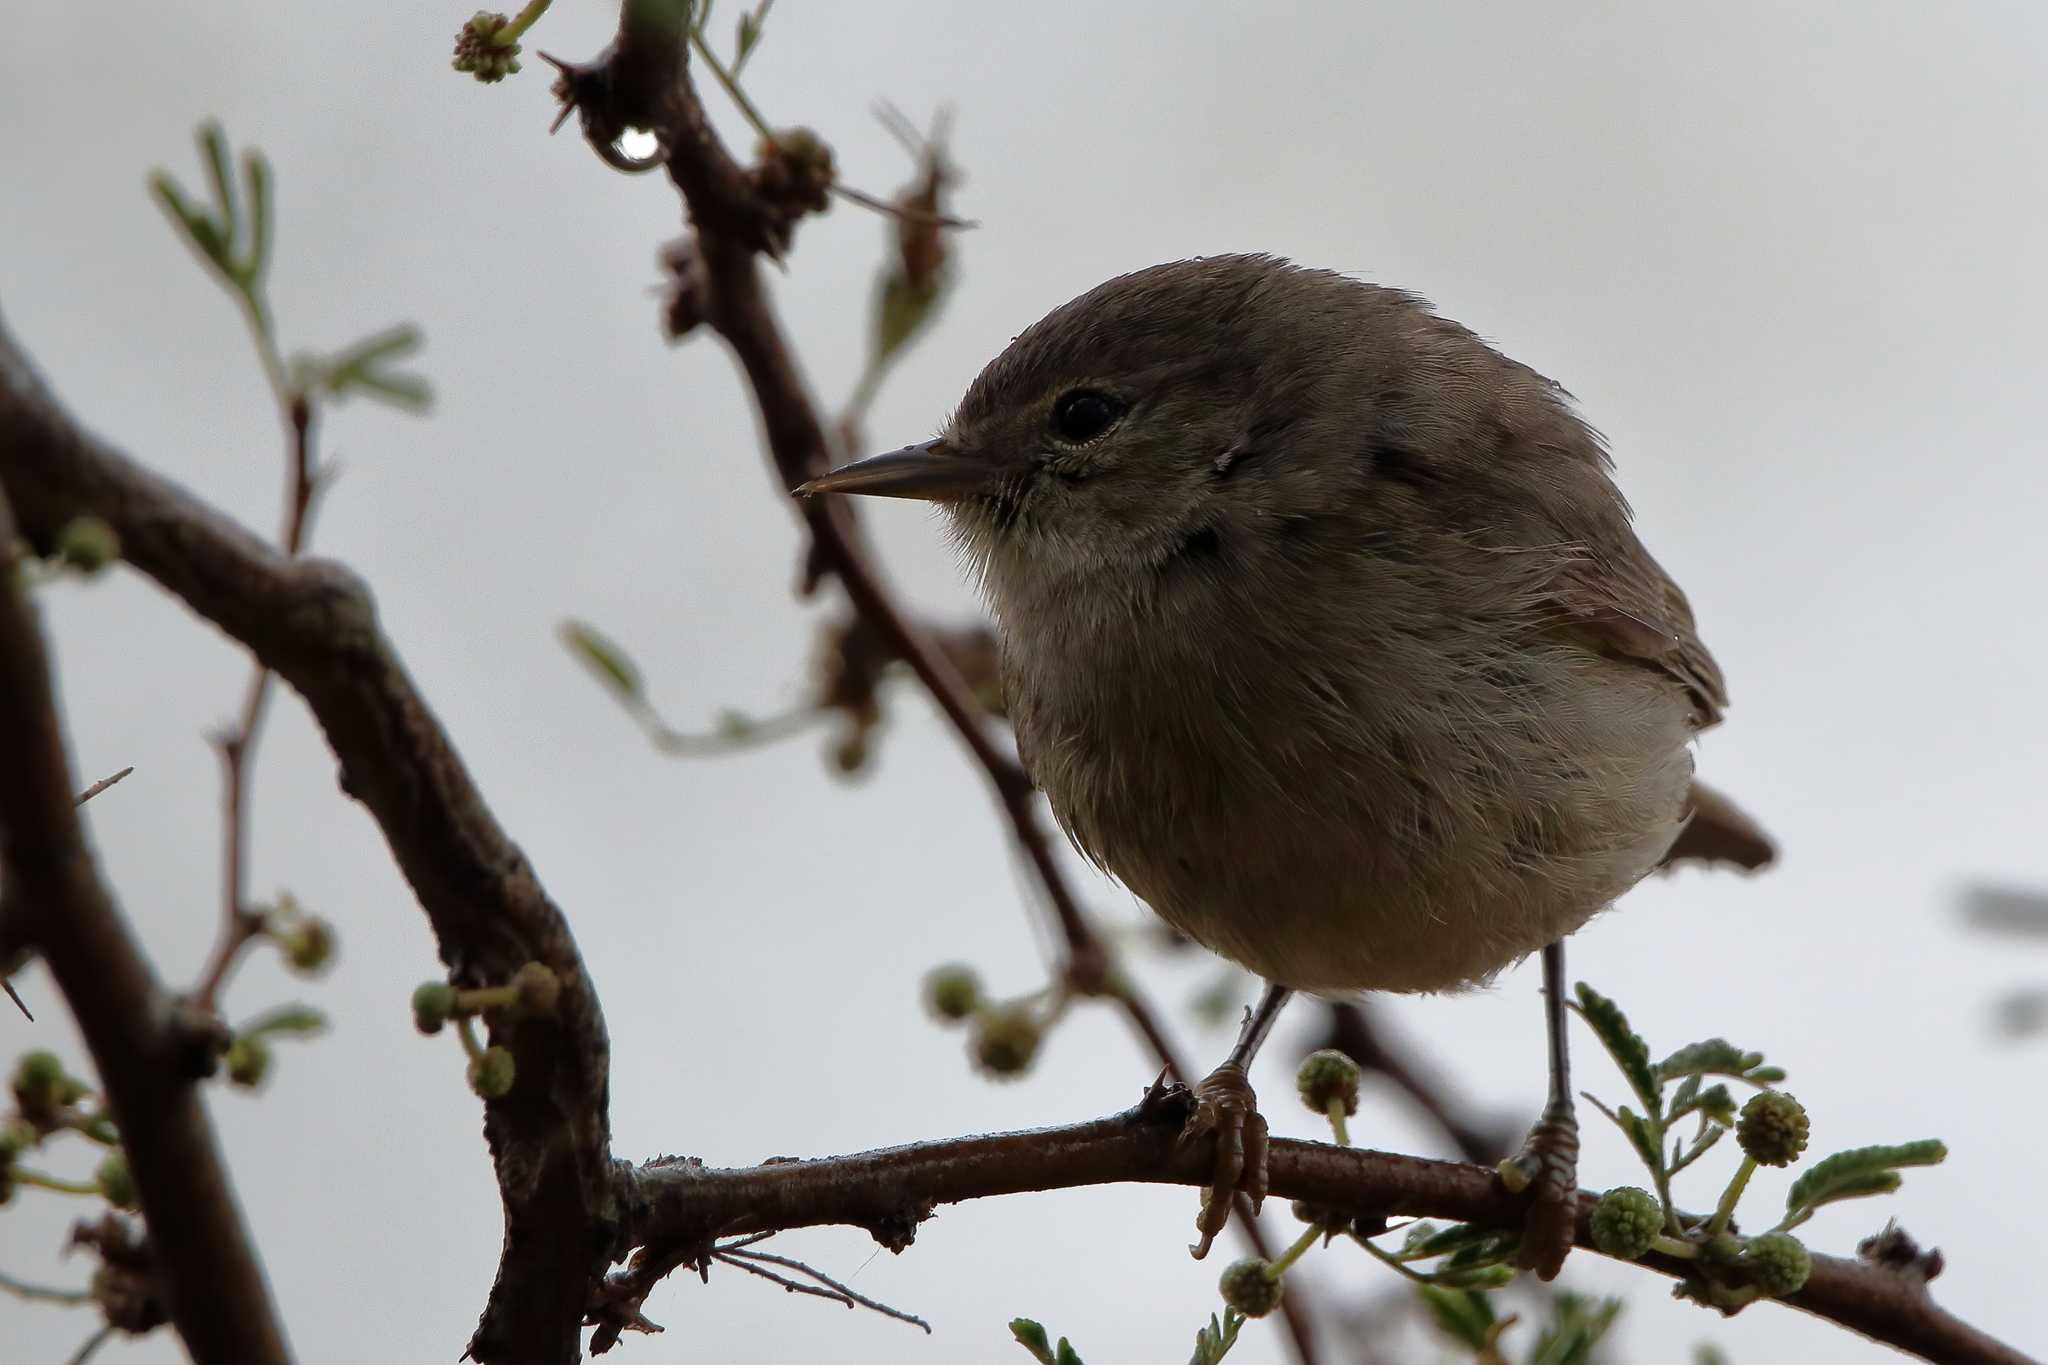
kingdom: Animalia
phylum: Chordata
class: Aves
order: Passeriformes
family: Parulidae
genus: Leiothlypis
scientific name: Leiothlypis celata
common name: Orange-crowned warbler
